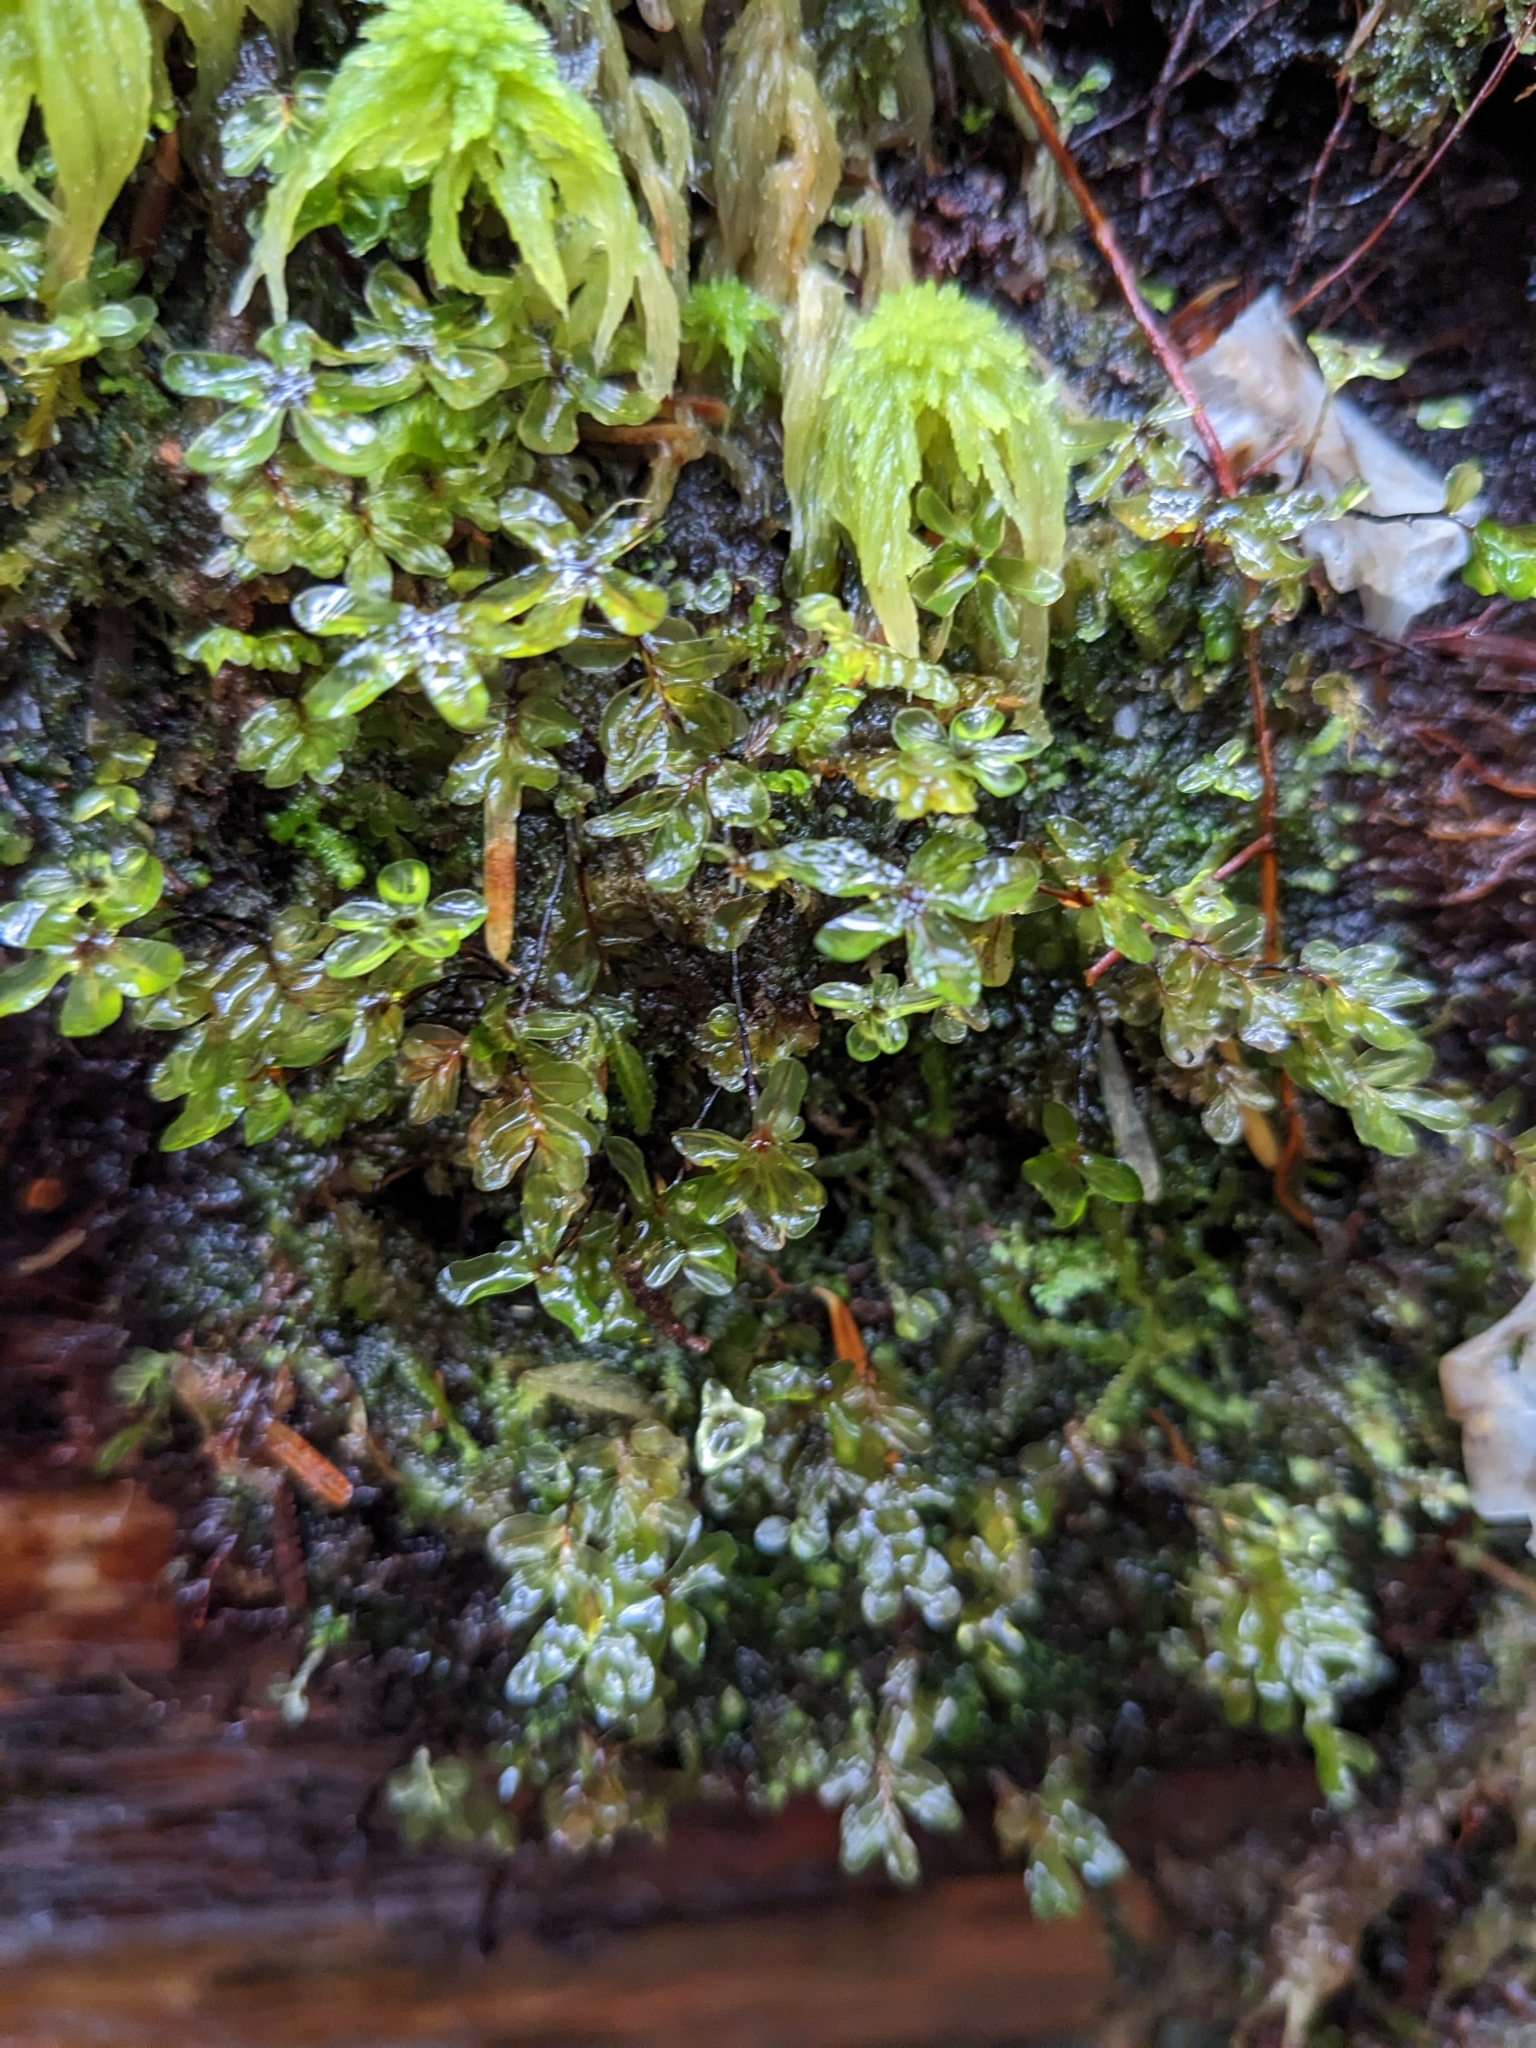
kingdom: Plantae
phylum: Bryophyta
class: Bryopsida
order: Bryales
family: Mniaceae
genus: Rhizomnium
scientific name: Rhizomnium glabrescens
